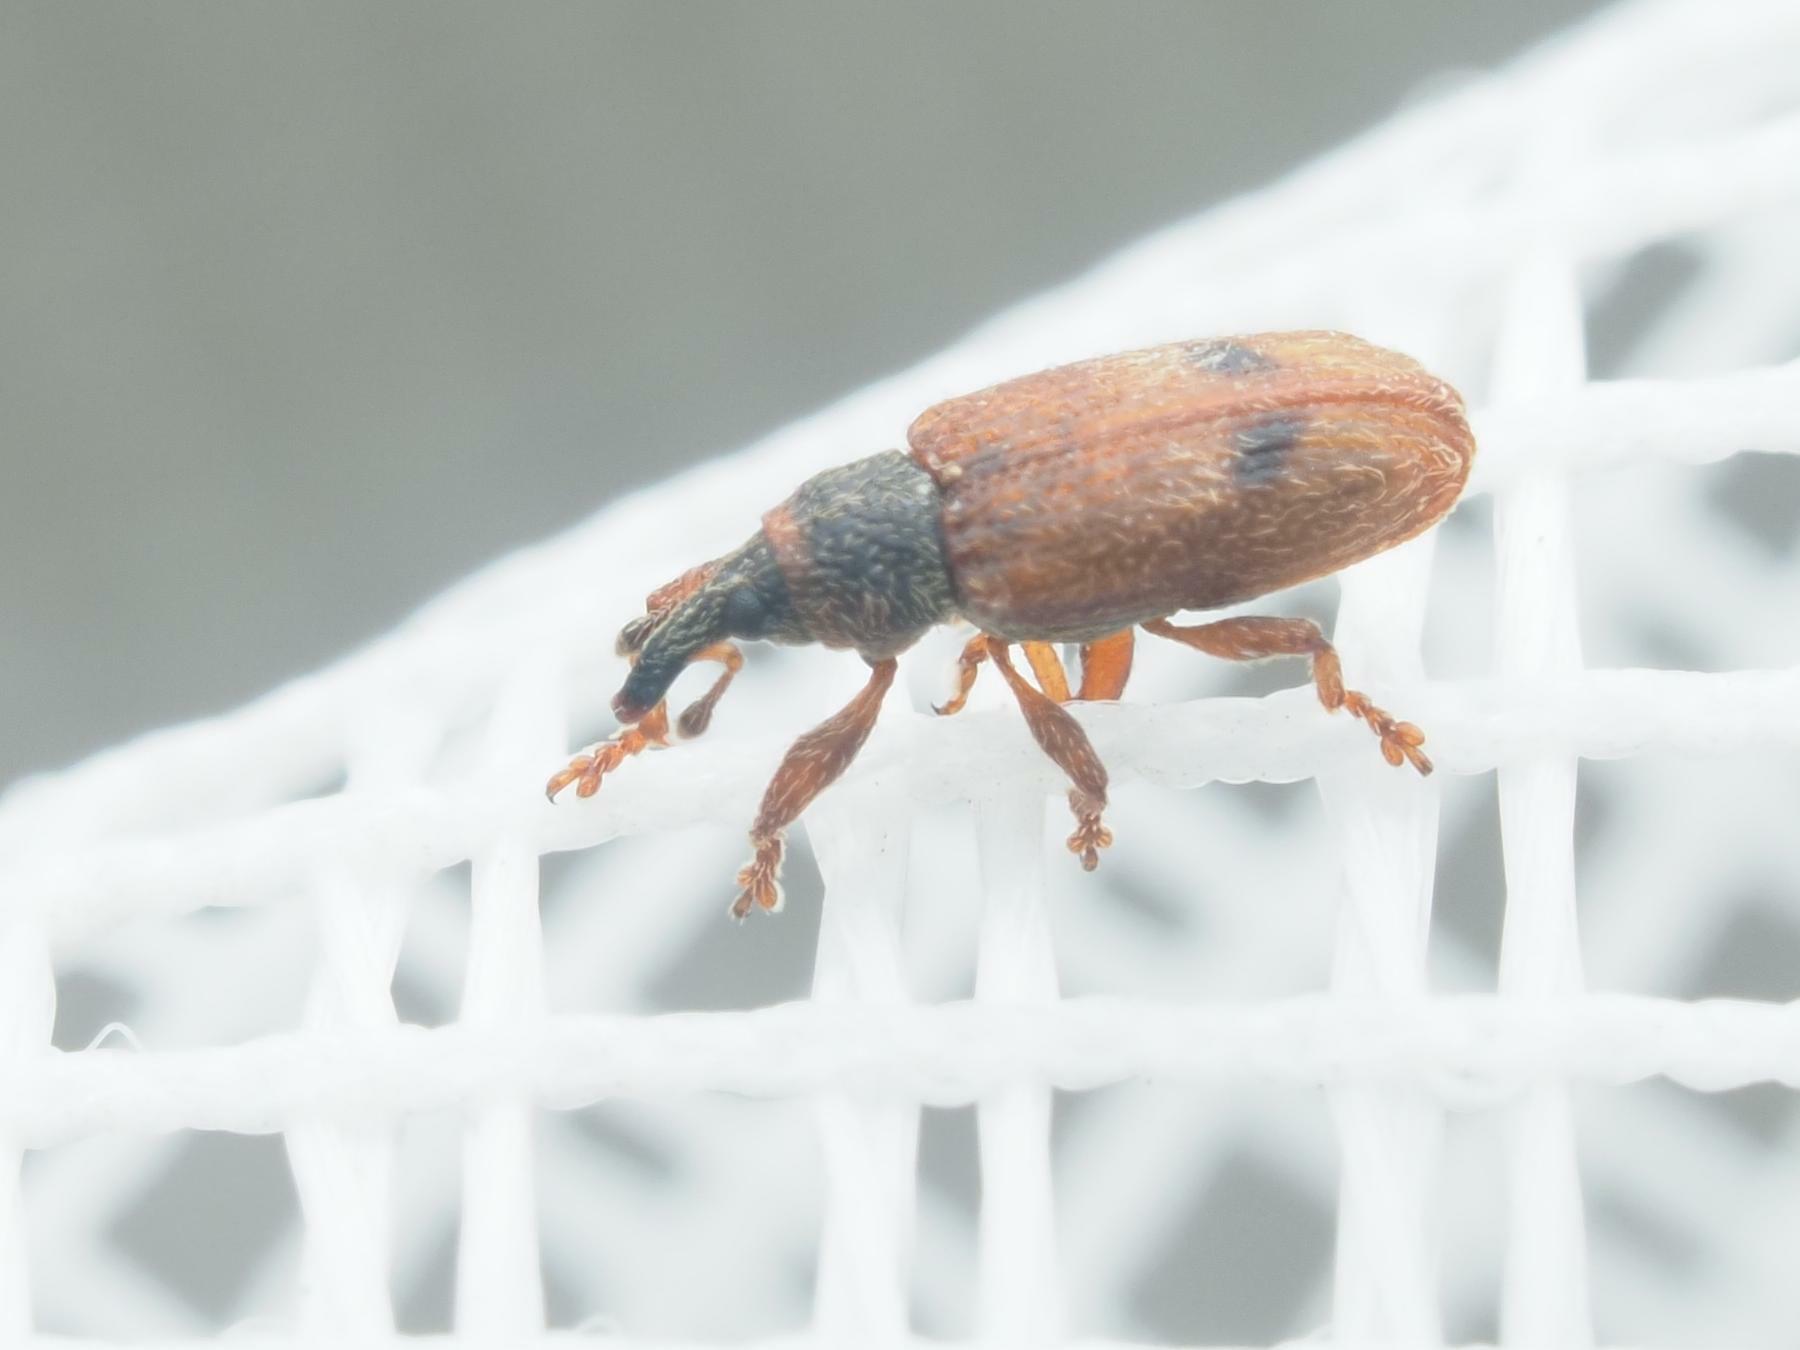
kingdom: Animalia
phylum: Arthropoda
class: Insecta
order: Coleoptera
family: Curculionidae
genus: Bradybatus
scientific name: Bradybatus creutzeri
